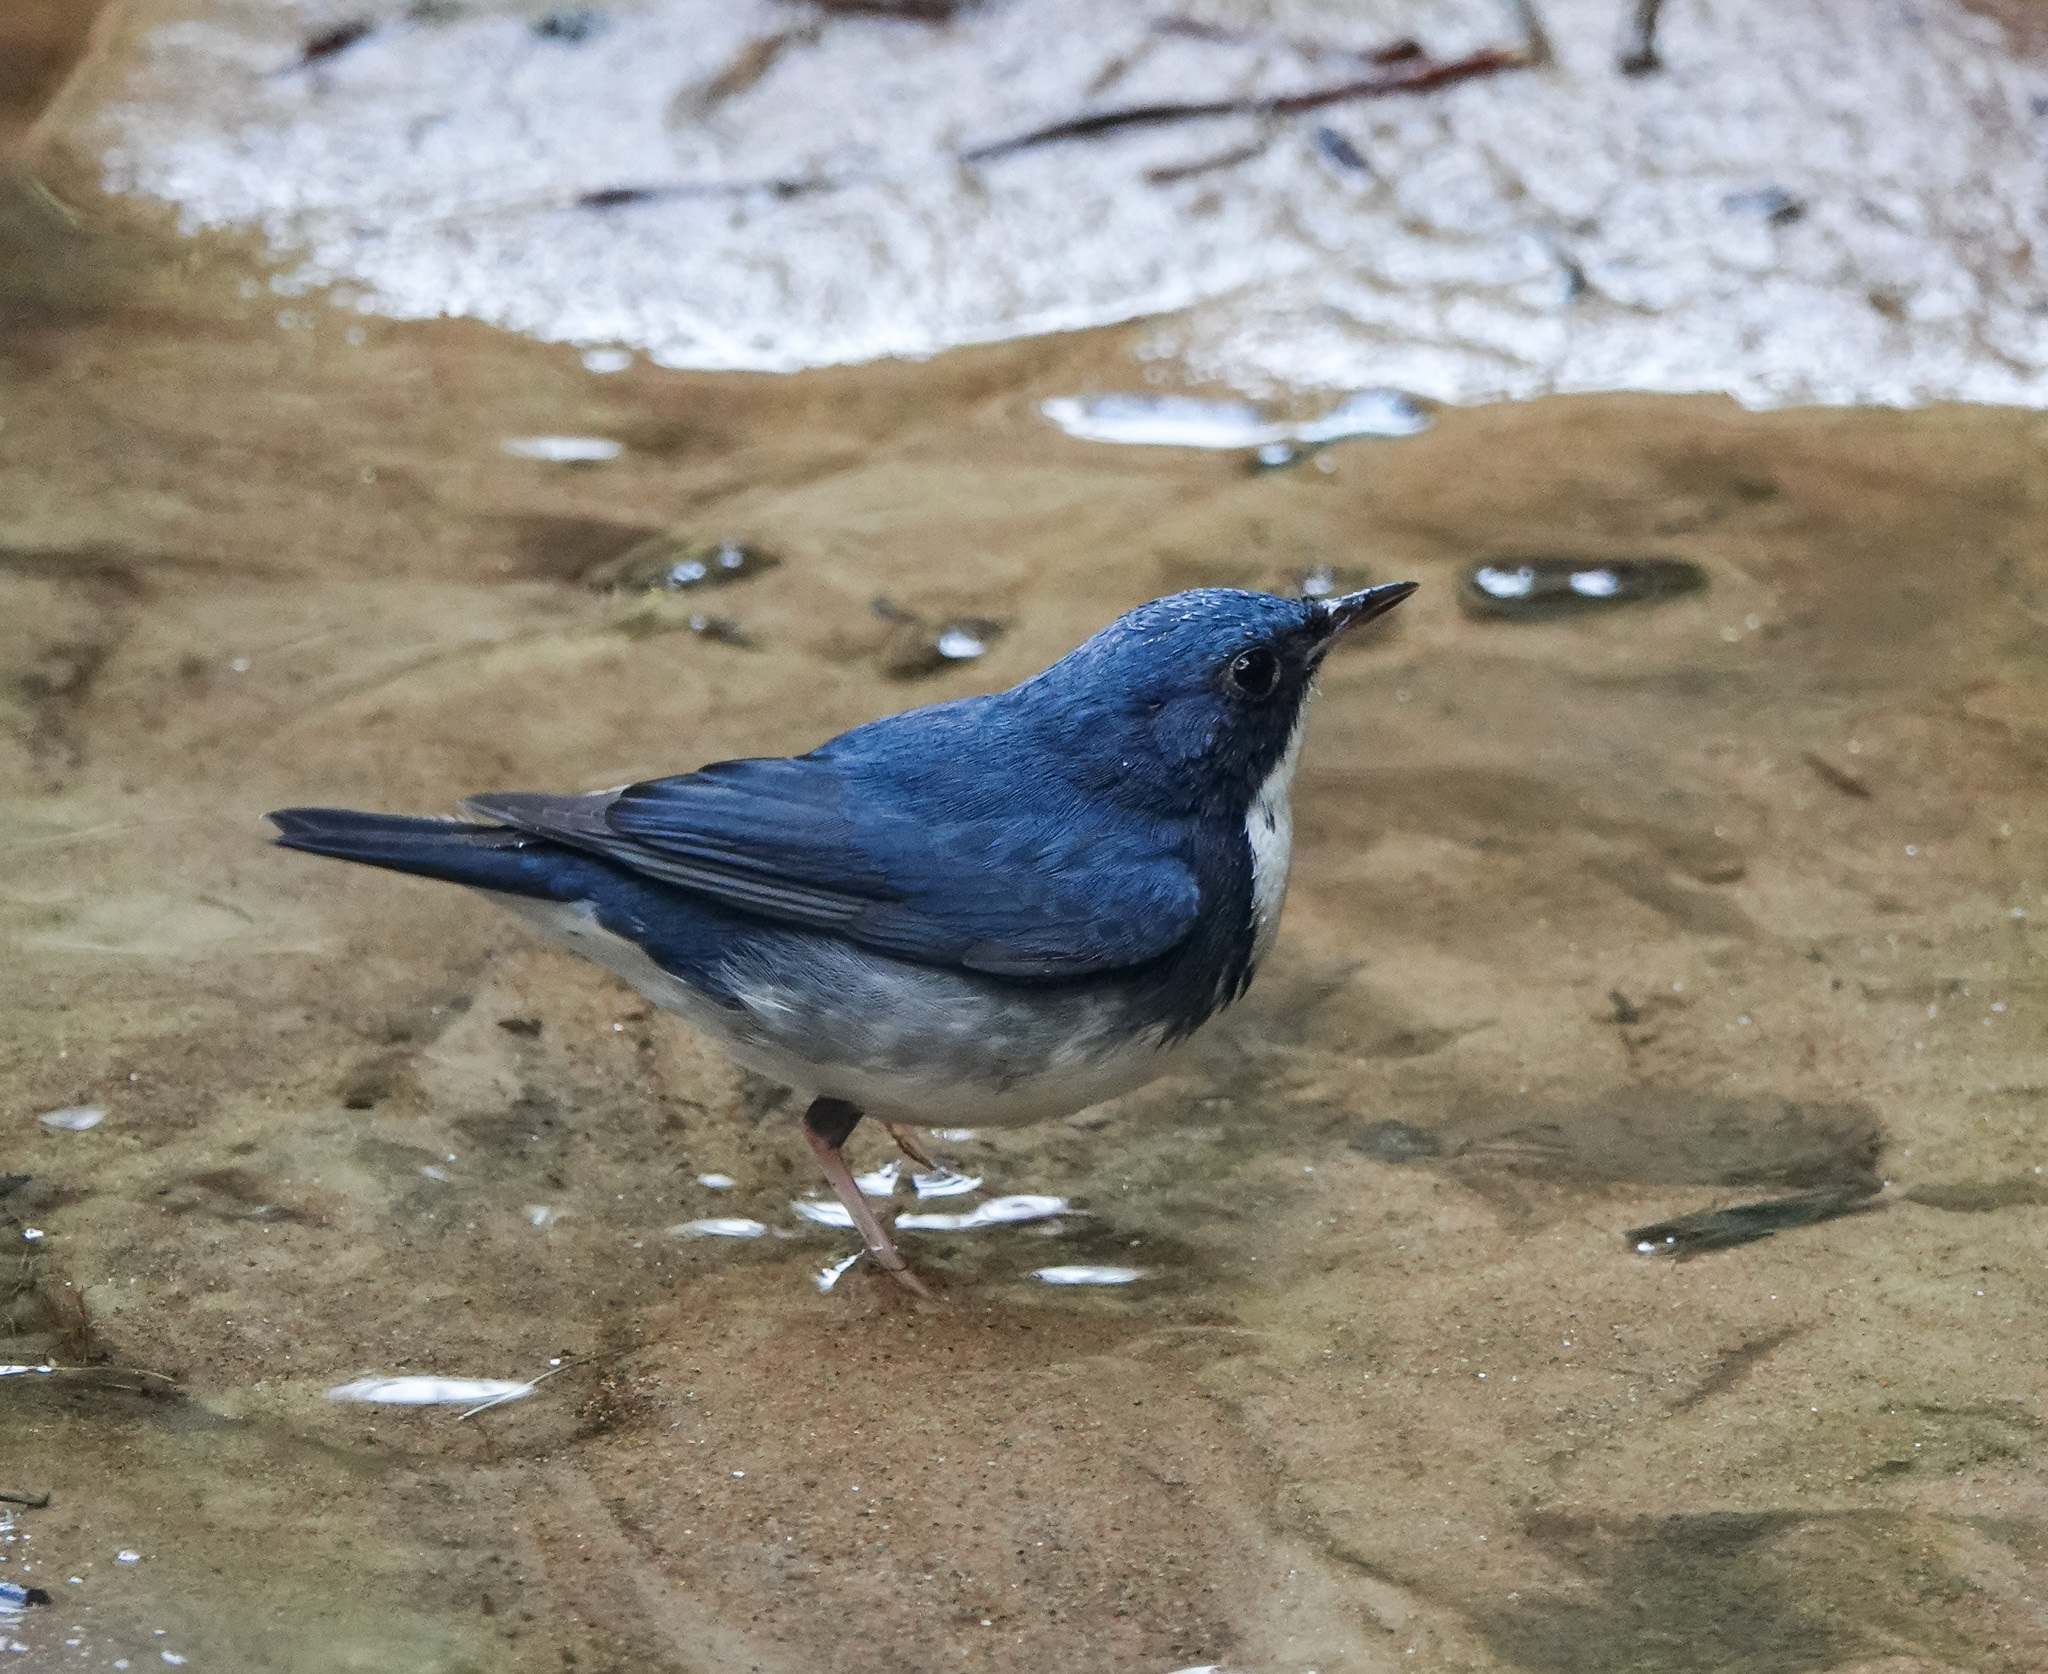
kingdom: Animalia
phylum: Chordata
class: Aves
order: Passeriformes
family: Muscicapidae
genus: Luscinia
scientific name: Luscinia cyane
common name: Siberian blue robin
